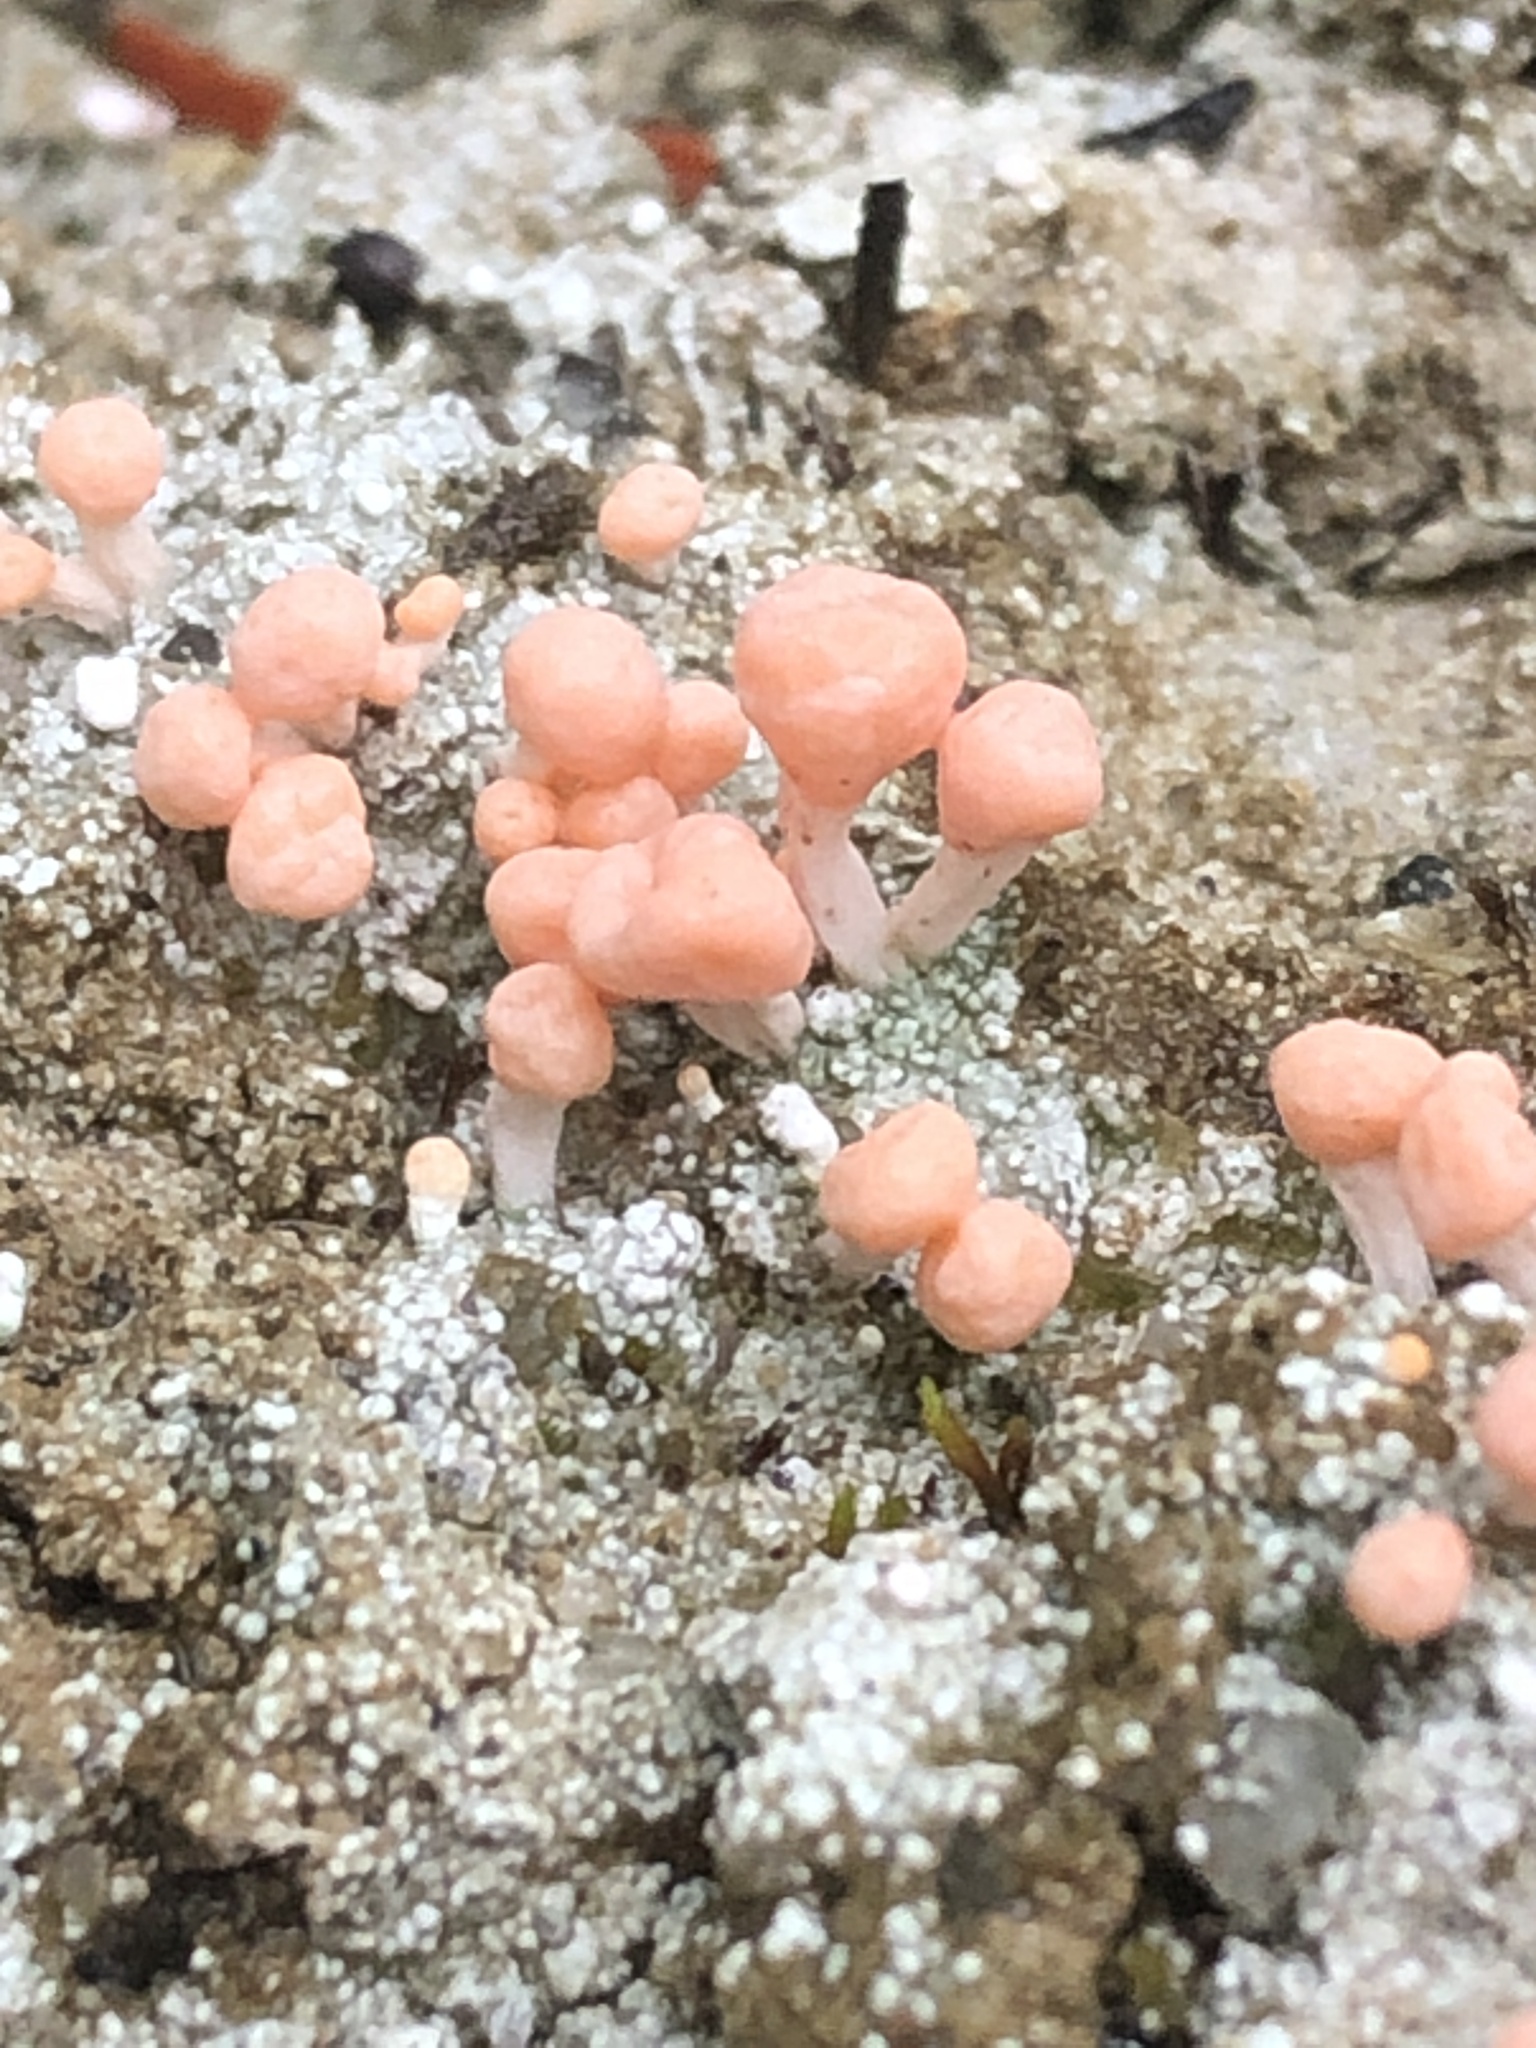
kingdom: Fungi
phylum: Ascomycota
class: Lecanoromycetes
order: Pertusariales
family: Icmadophilaceae
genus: Dibaeis
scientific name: Dibaeis baeomyces
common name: Pink earth lichen
